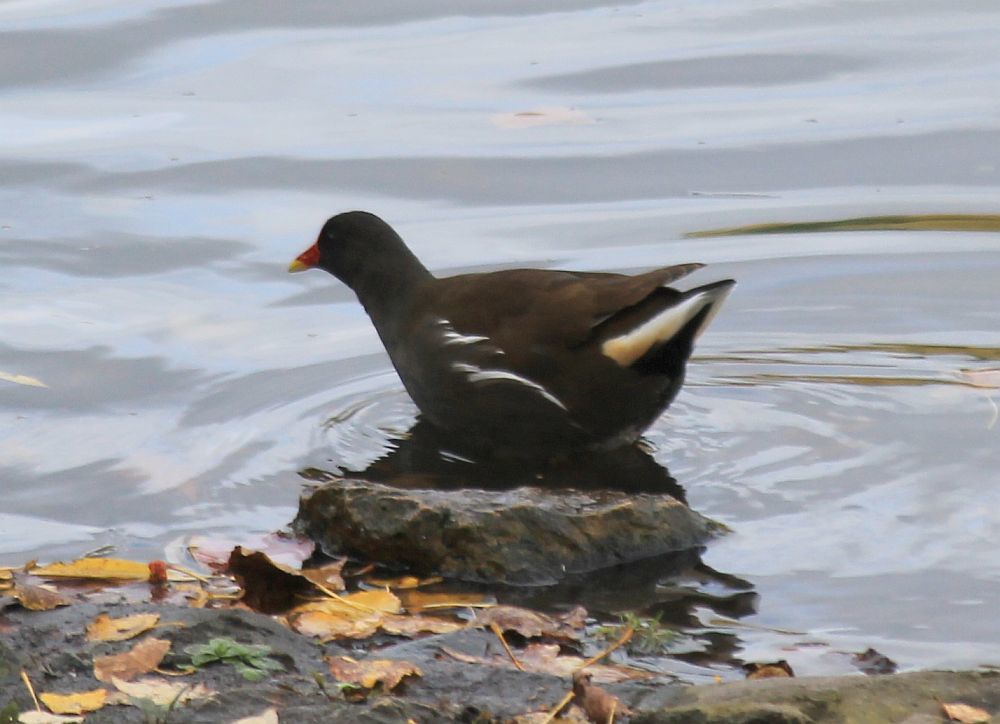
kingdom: Animalia
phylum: Chordata
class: Aves
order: Gruiformes
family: Rallidae
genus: Gallinula
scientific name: Gallinula chloropus
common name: Common moorhen
